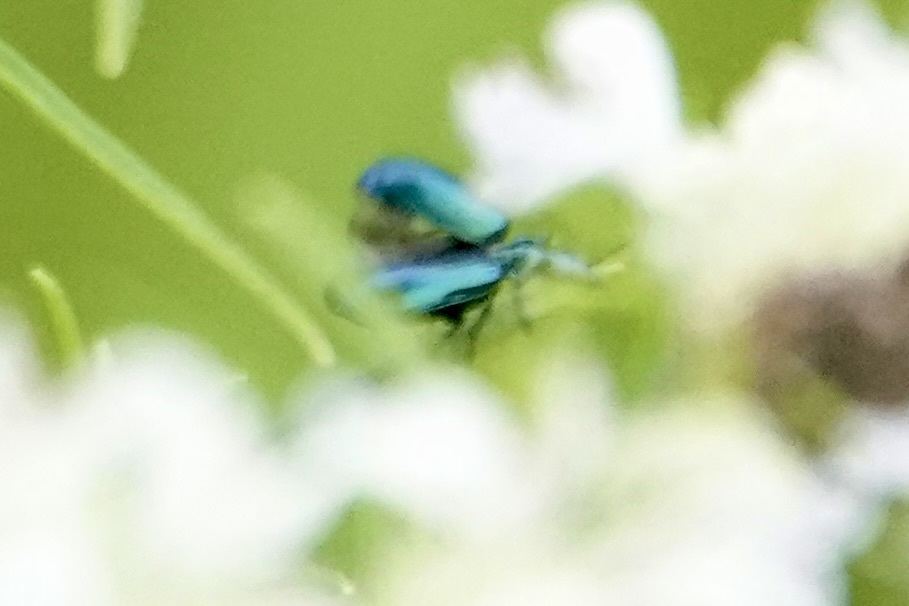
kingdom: Animalia
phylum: Arthropoda
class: Insecta
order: Coleoptera
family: Carabidae
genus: Lebia
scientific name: Lebia viridis
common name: Flower lebia beetle
